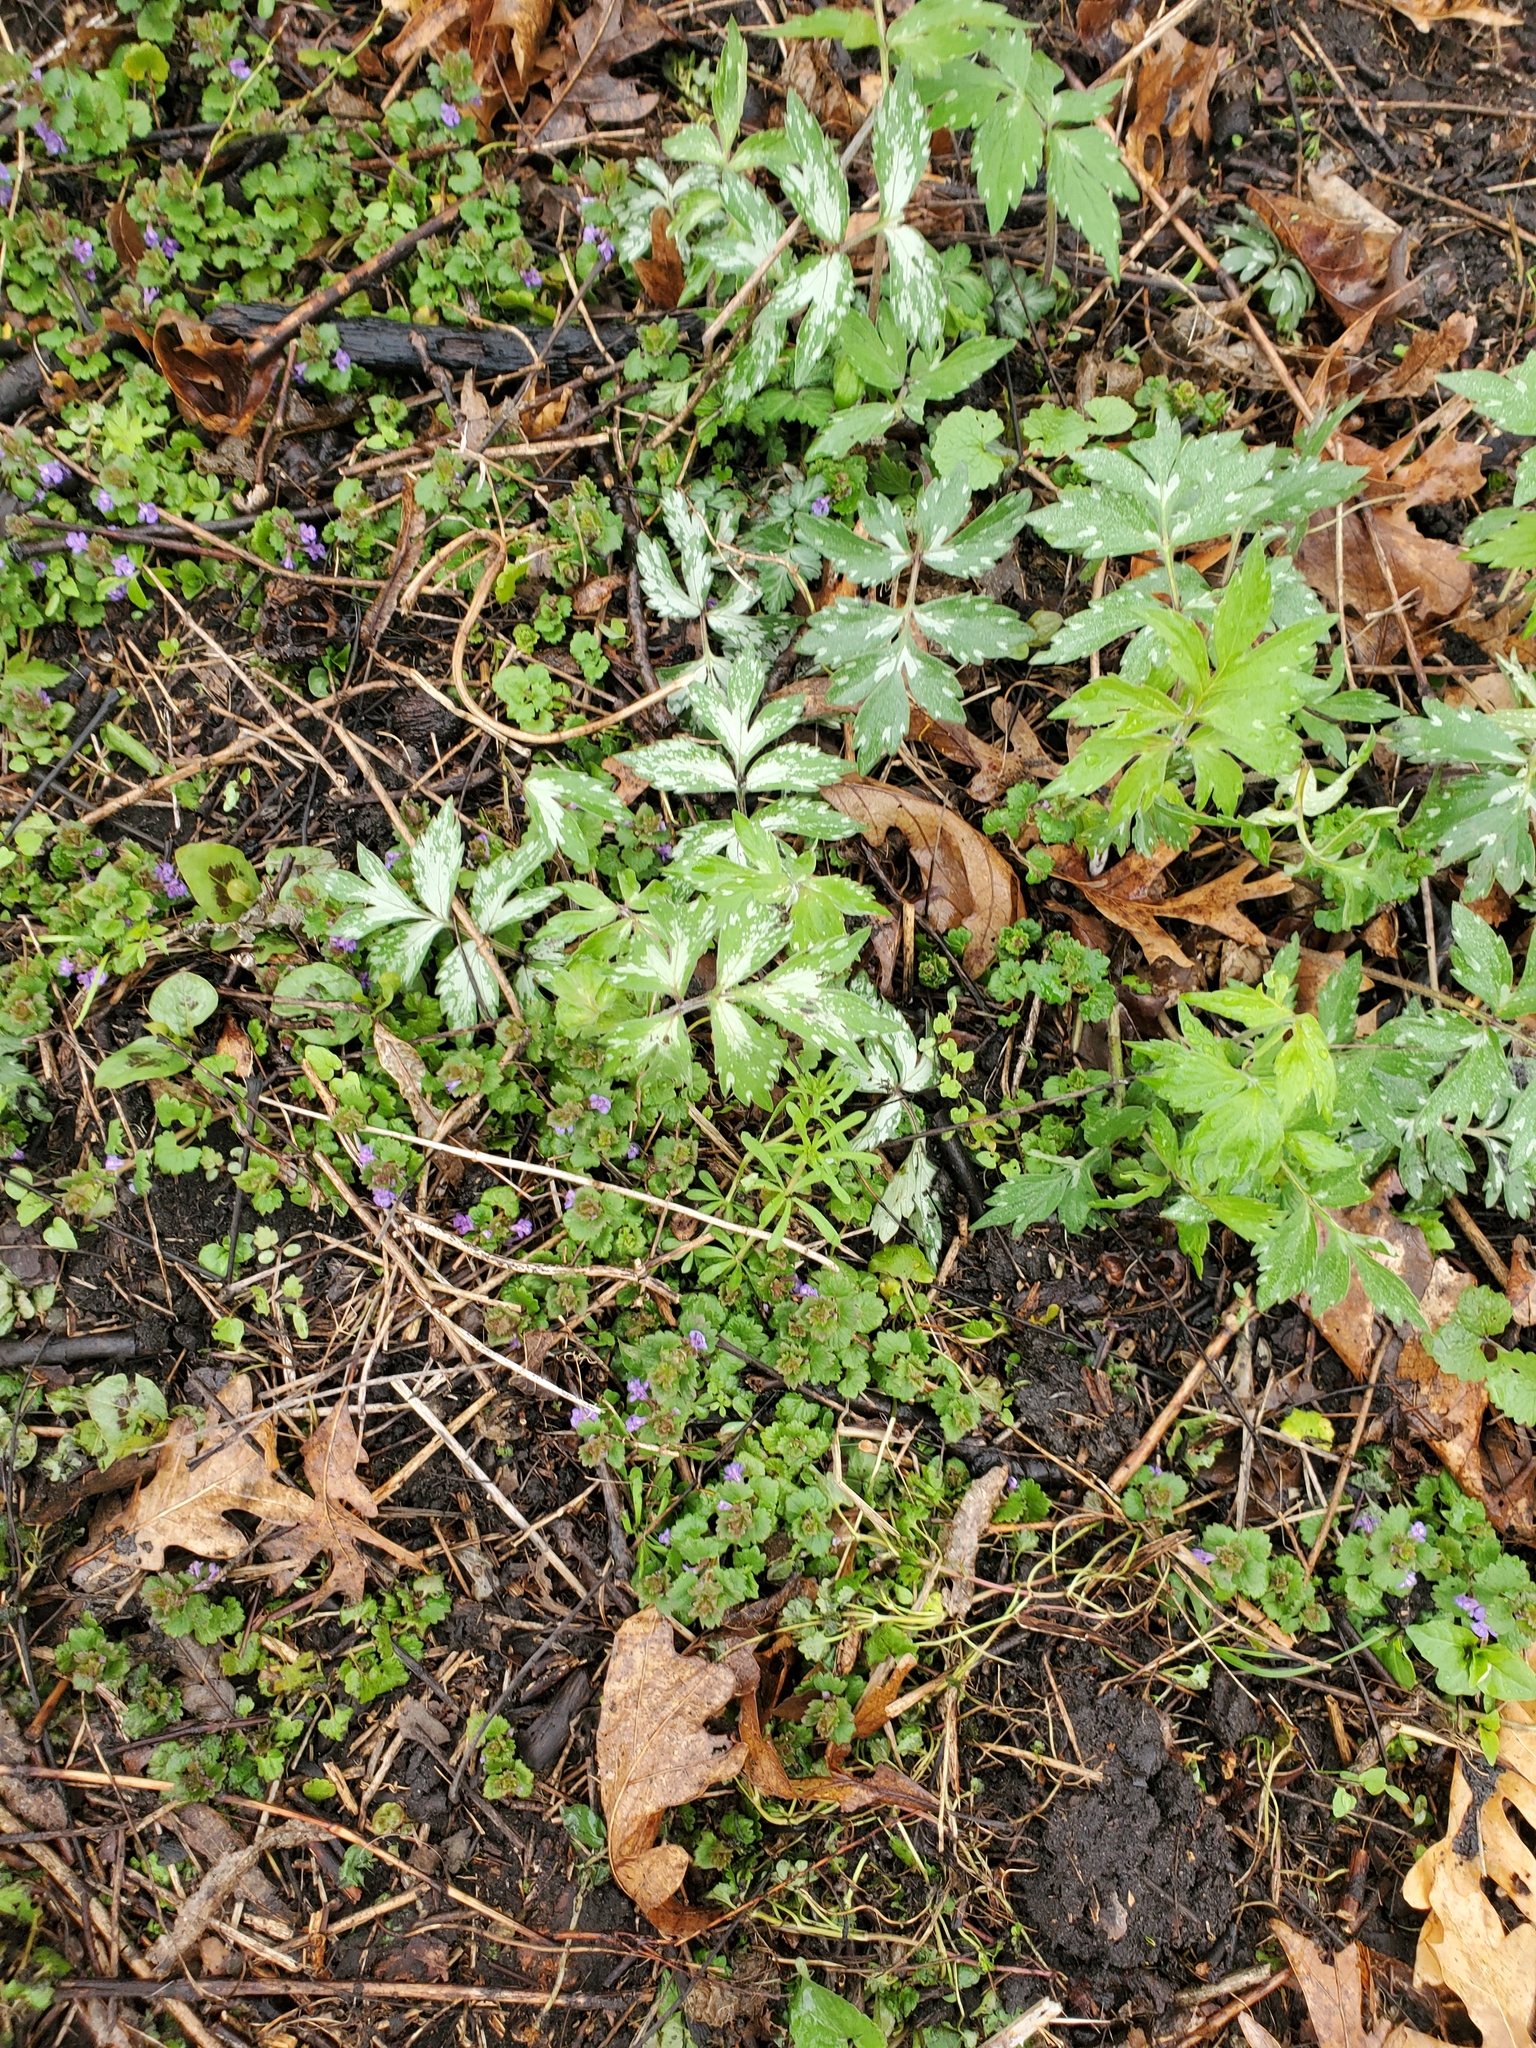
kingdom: Plantae
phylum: Tracheophyta
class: Magnoliopsida
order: Boraginales
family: Hydrophyllaceae
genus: Hydrophyllum
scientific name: Hydrophyllum virginianum
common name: Virginia waterleaf
